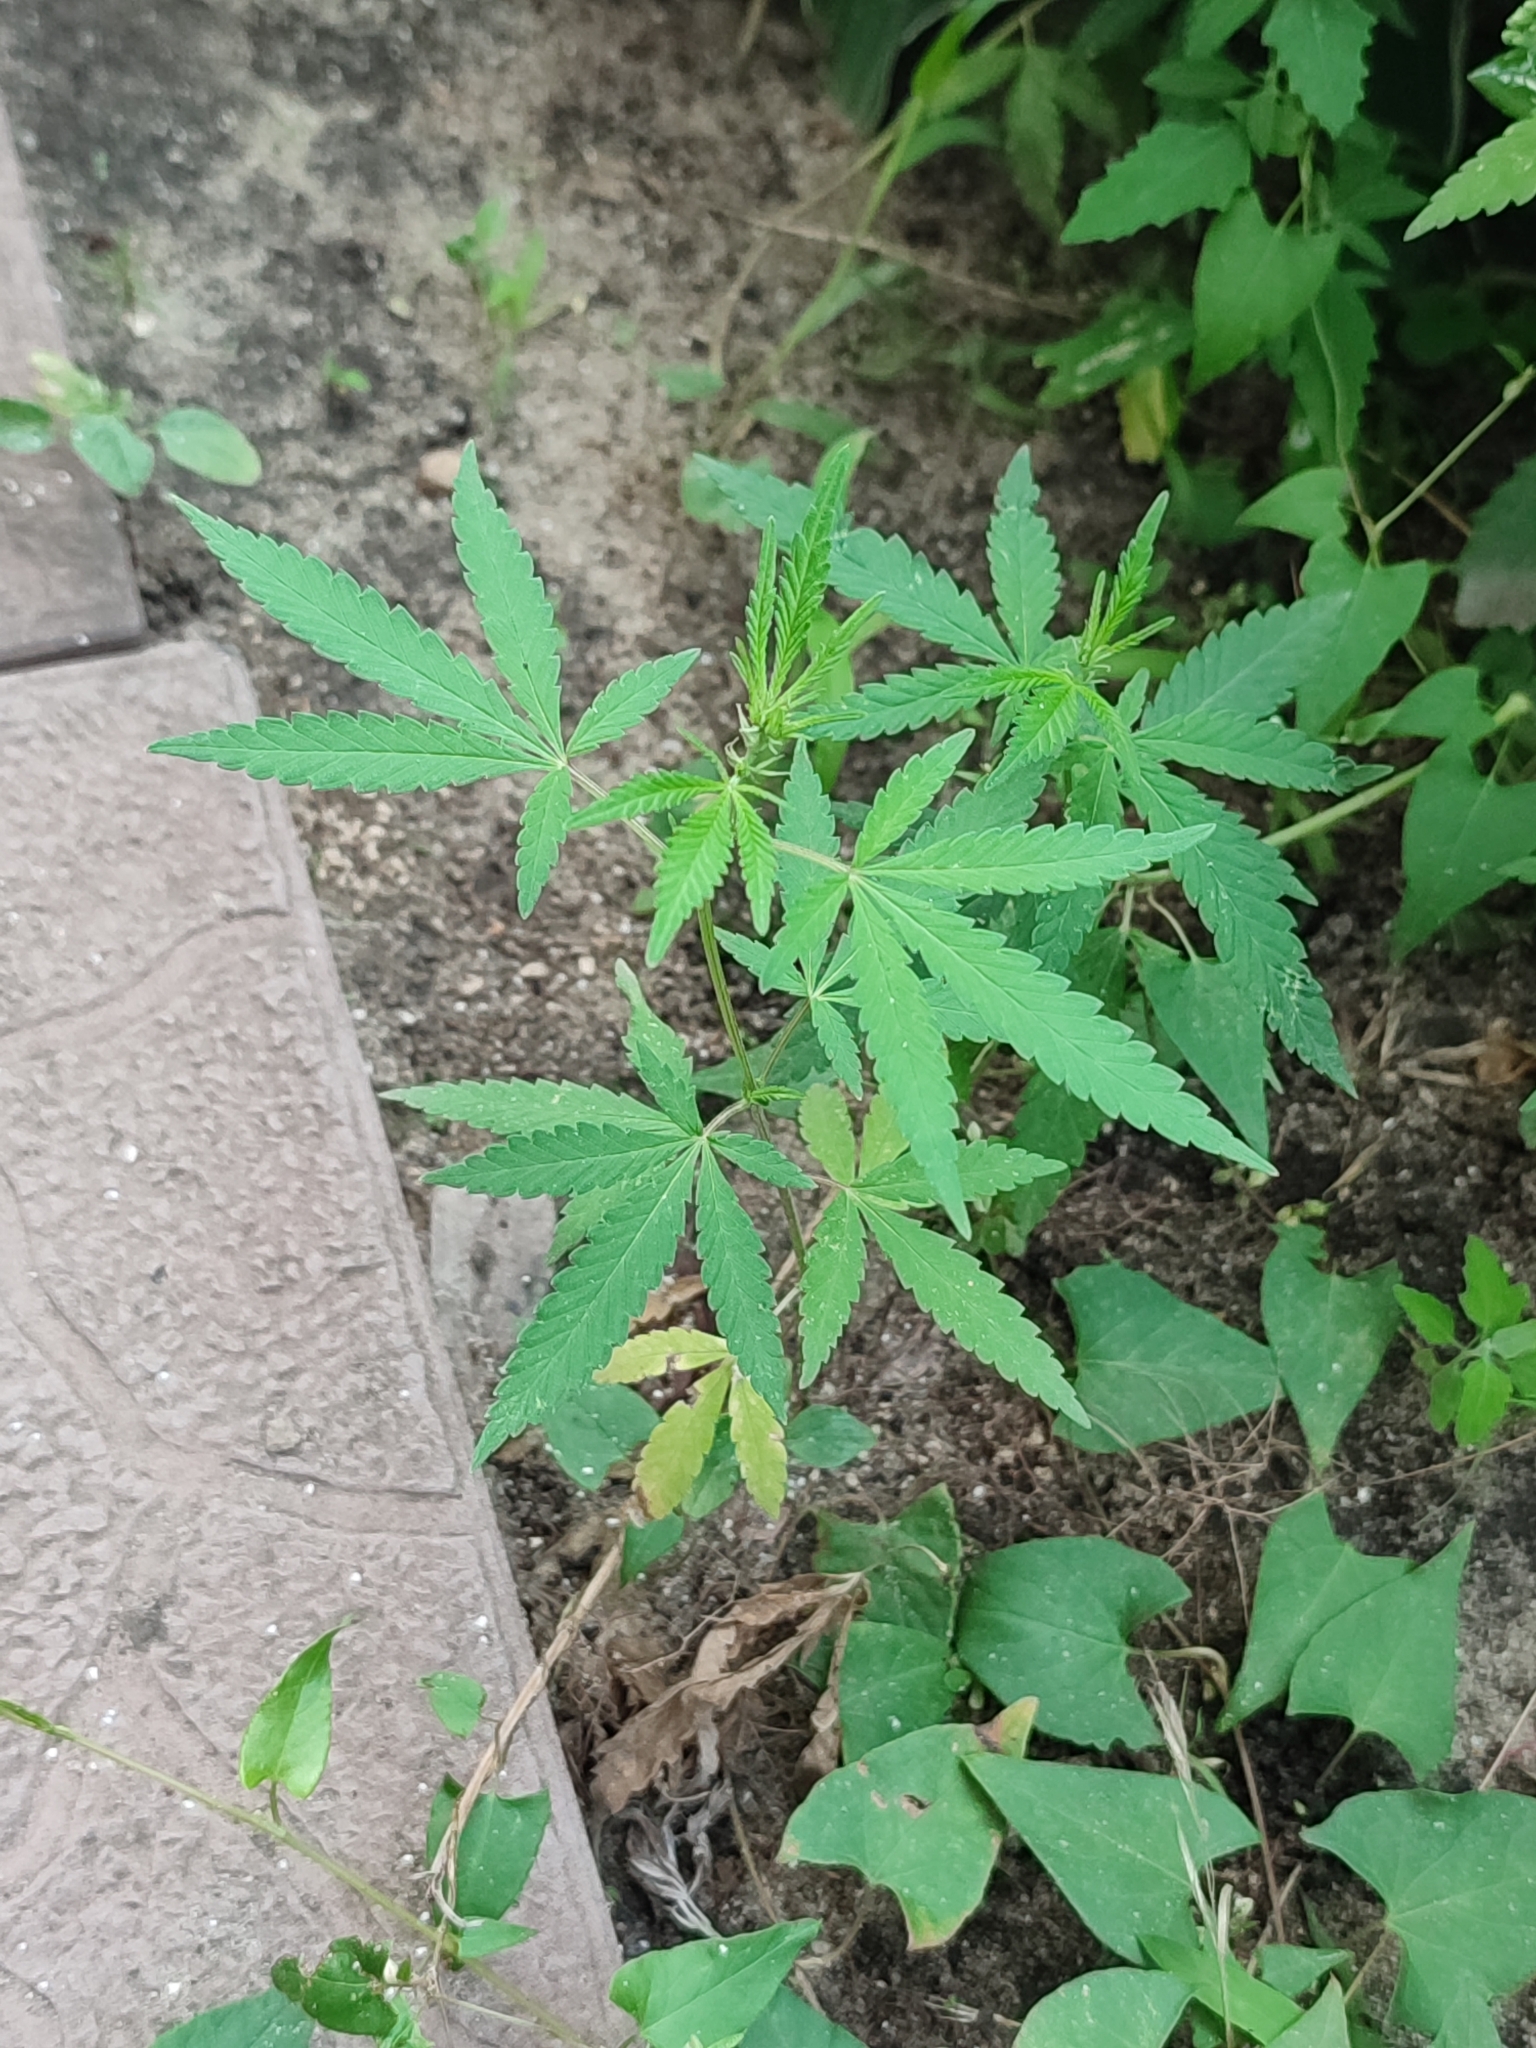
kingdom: Plantae
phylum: Tracheophyta
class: Magnoliopsida
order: Rosales
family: Cannabaceae
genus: Cannabis
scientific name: Cannabis sativa
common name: Hemp
